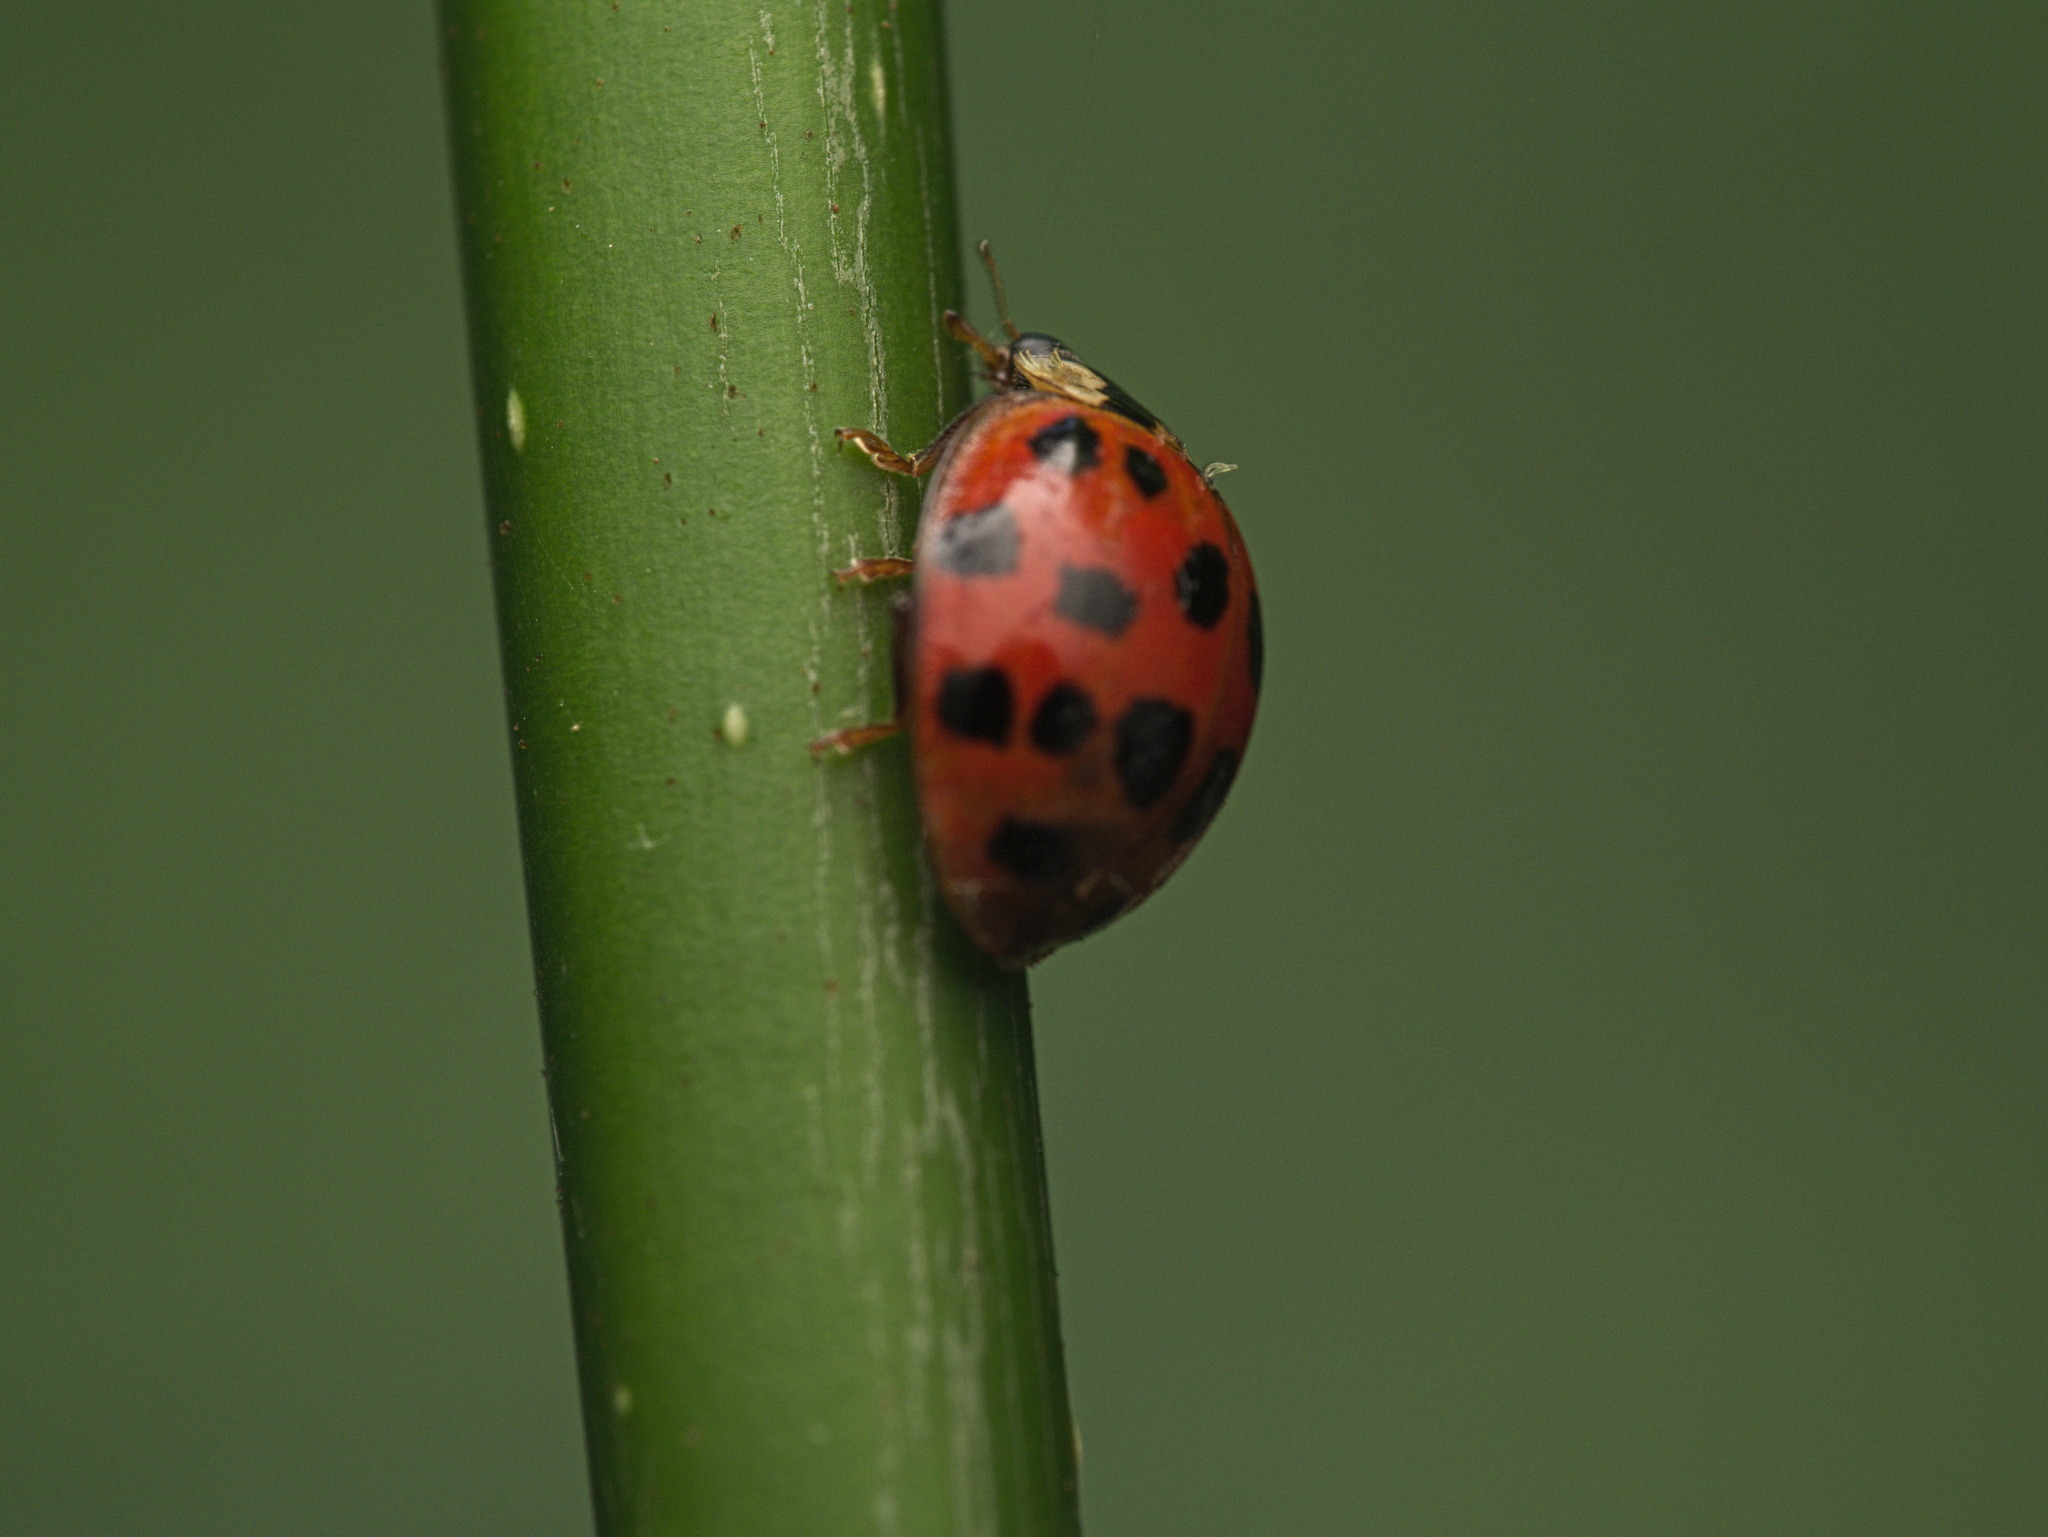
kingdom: Animalia
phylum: Arthropoda
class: Insecta
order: Coleoptera
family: Coccinellidae
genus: Harmonia
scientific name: Harmonia axyridis
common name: Harlequin ladybird
